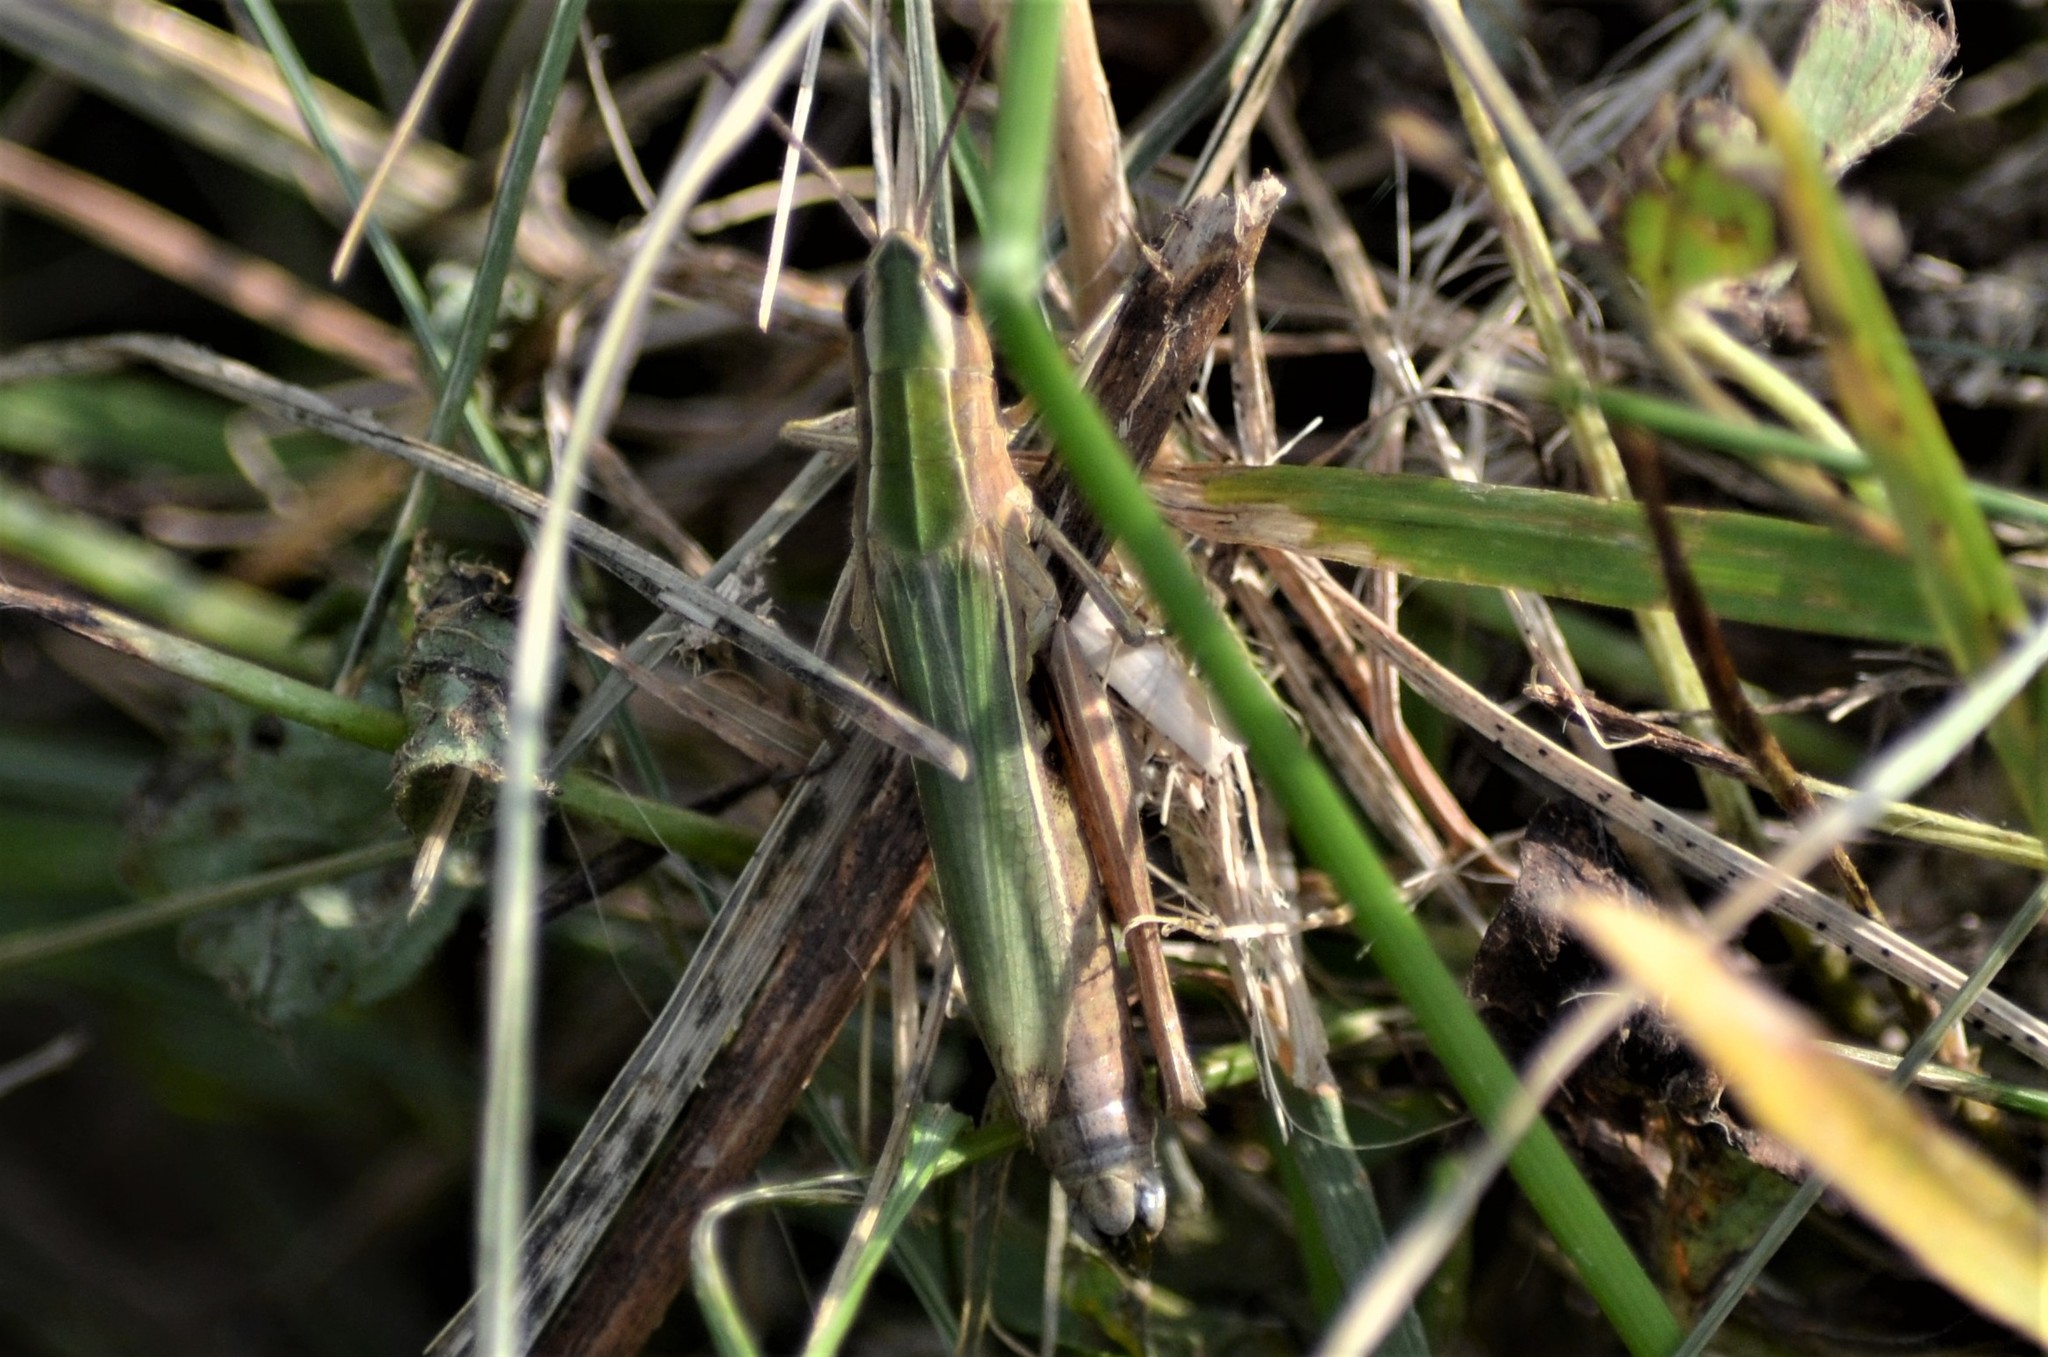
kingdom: Animalia
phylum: Arthropoda
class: Insecta
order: Orthoptera
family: Acrididae
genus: Chorthippus
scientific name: Chorthippus albomarginatus
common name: Lesser marsh grasshopper
